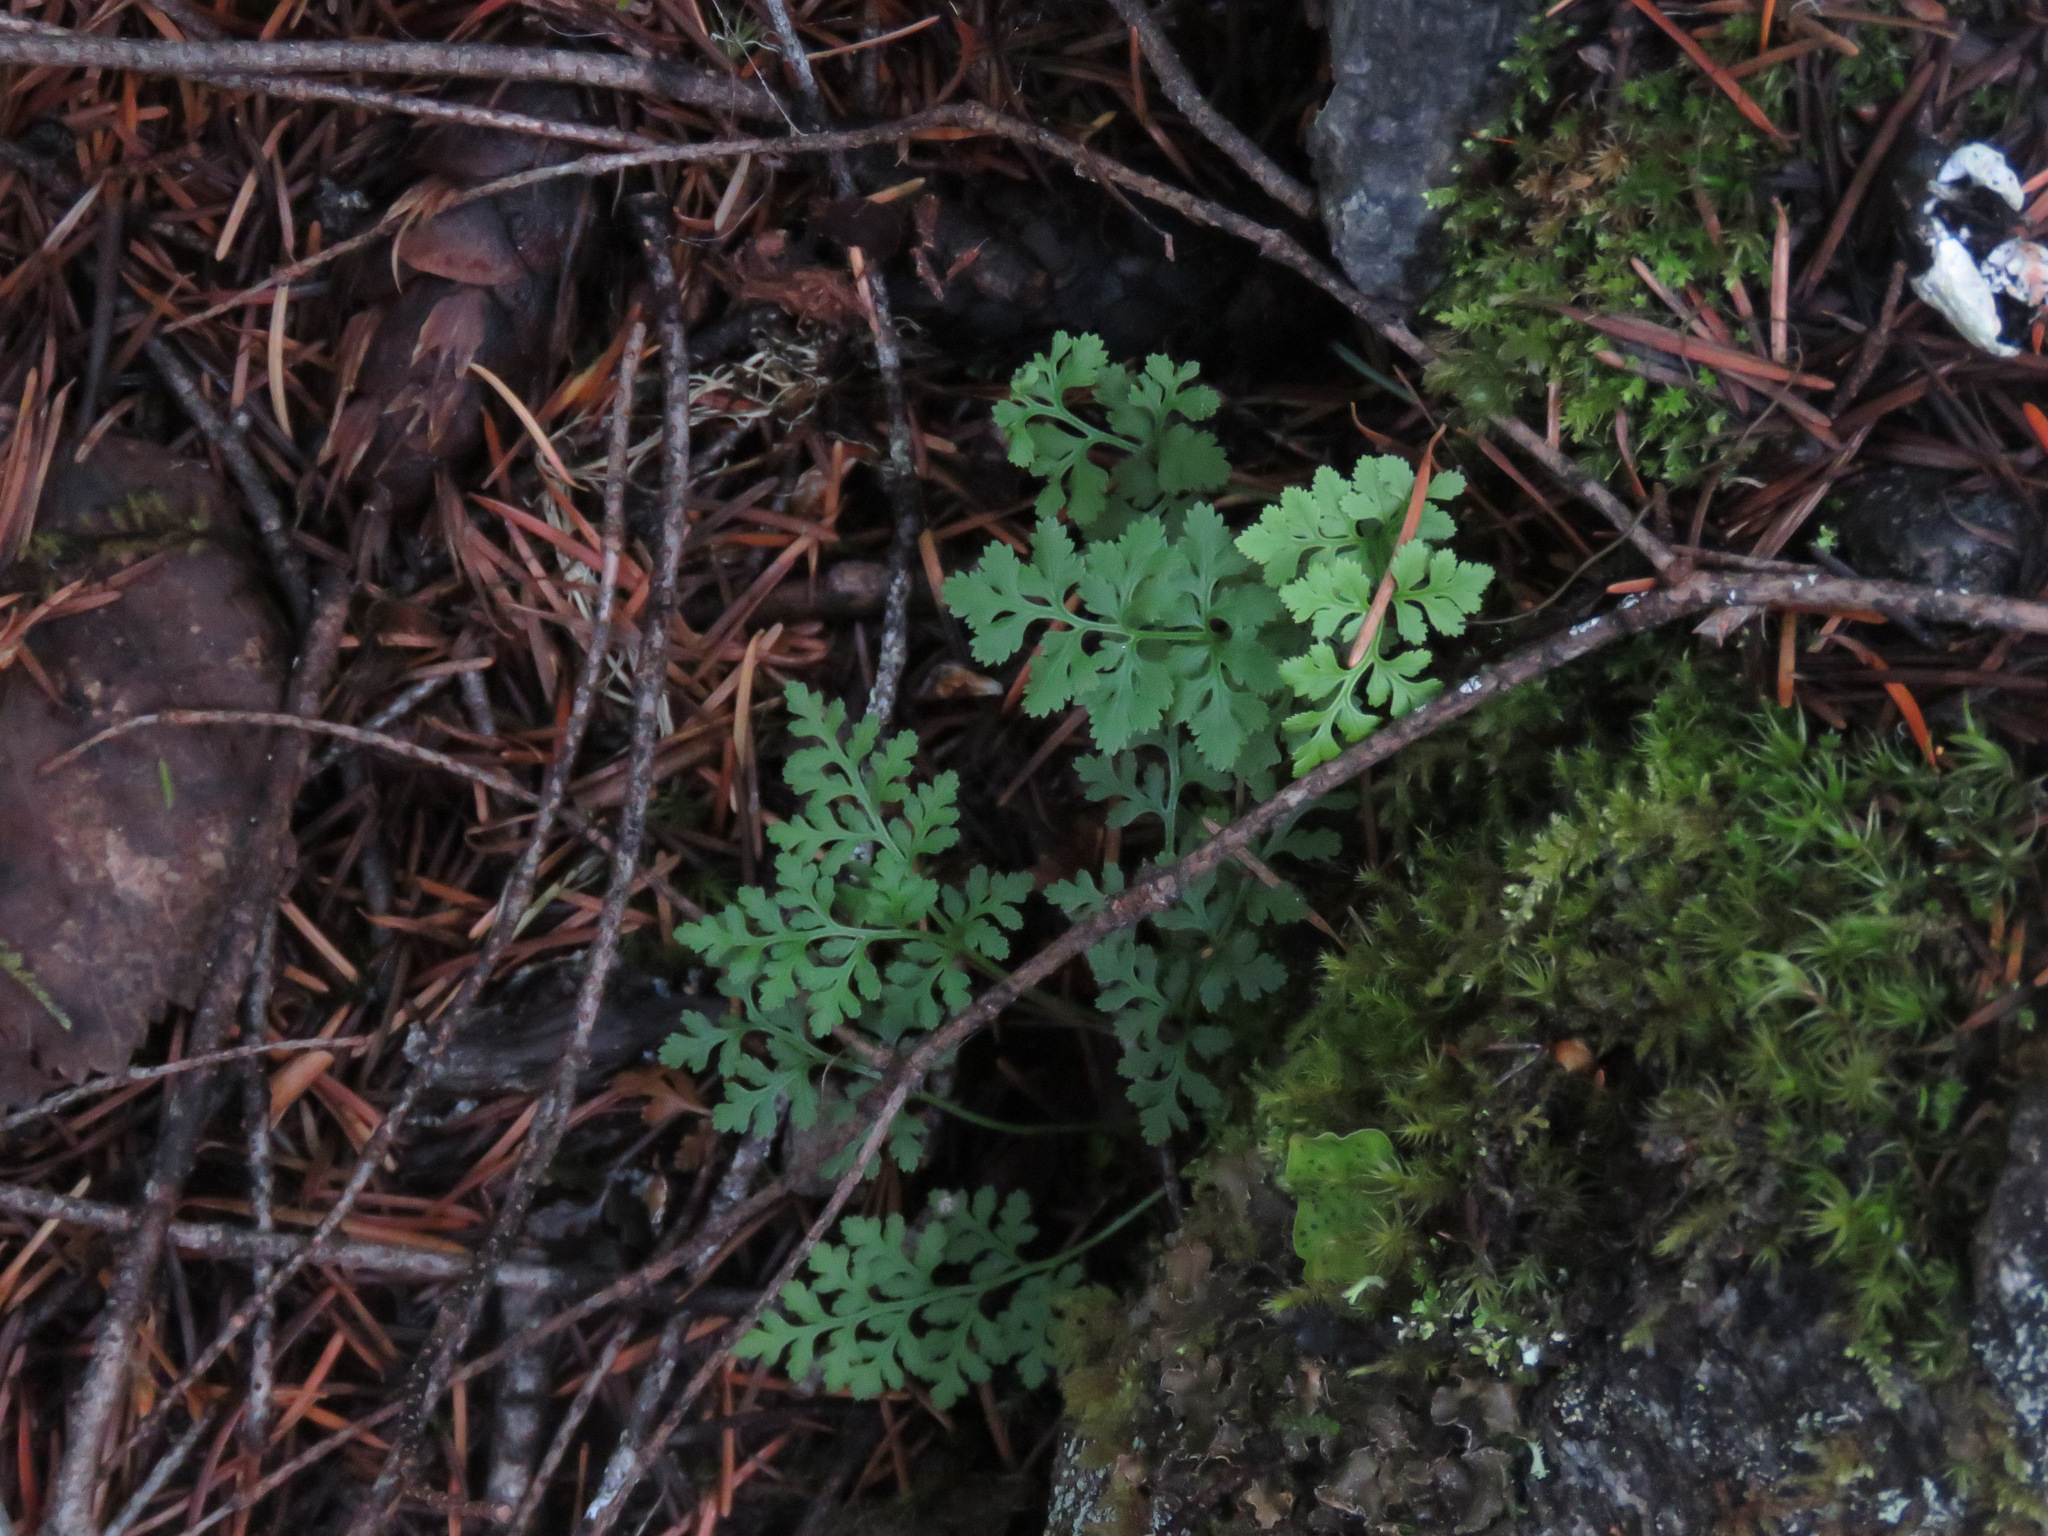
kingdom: Plantae
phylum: Tracheophyta
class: Polypodiopsida
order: Polypodiales
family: Pteridaceae
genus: Cryptogramma
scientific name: Cryptogramma acrostichoides
